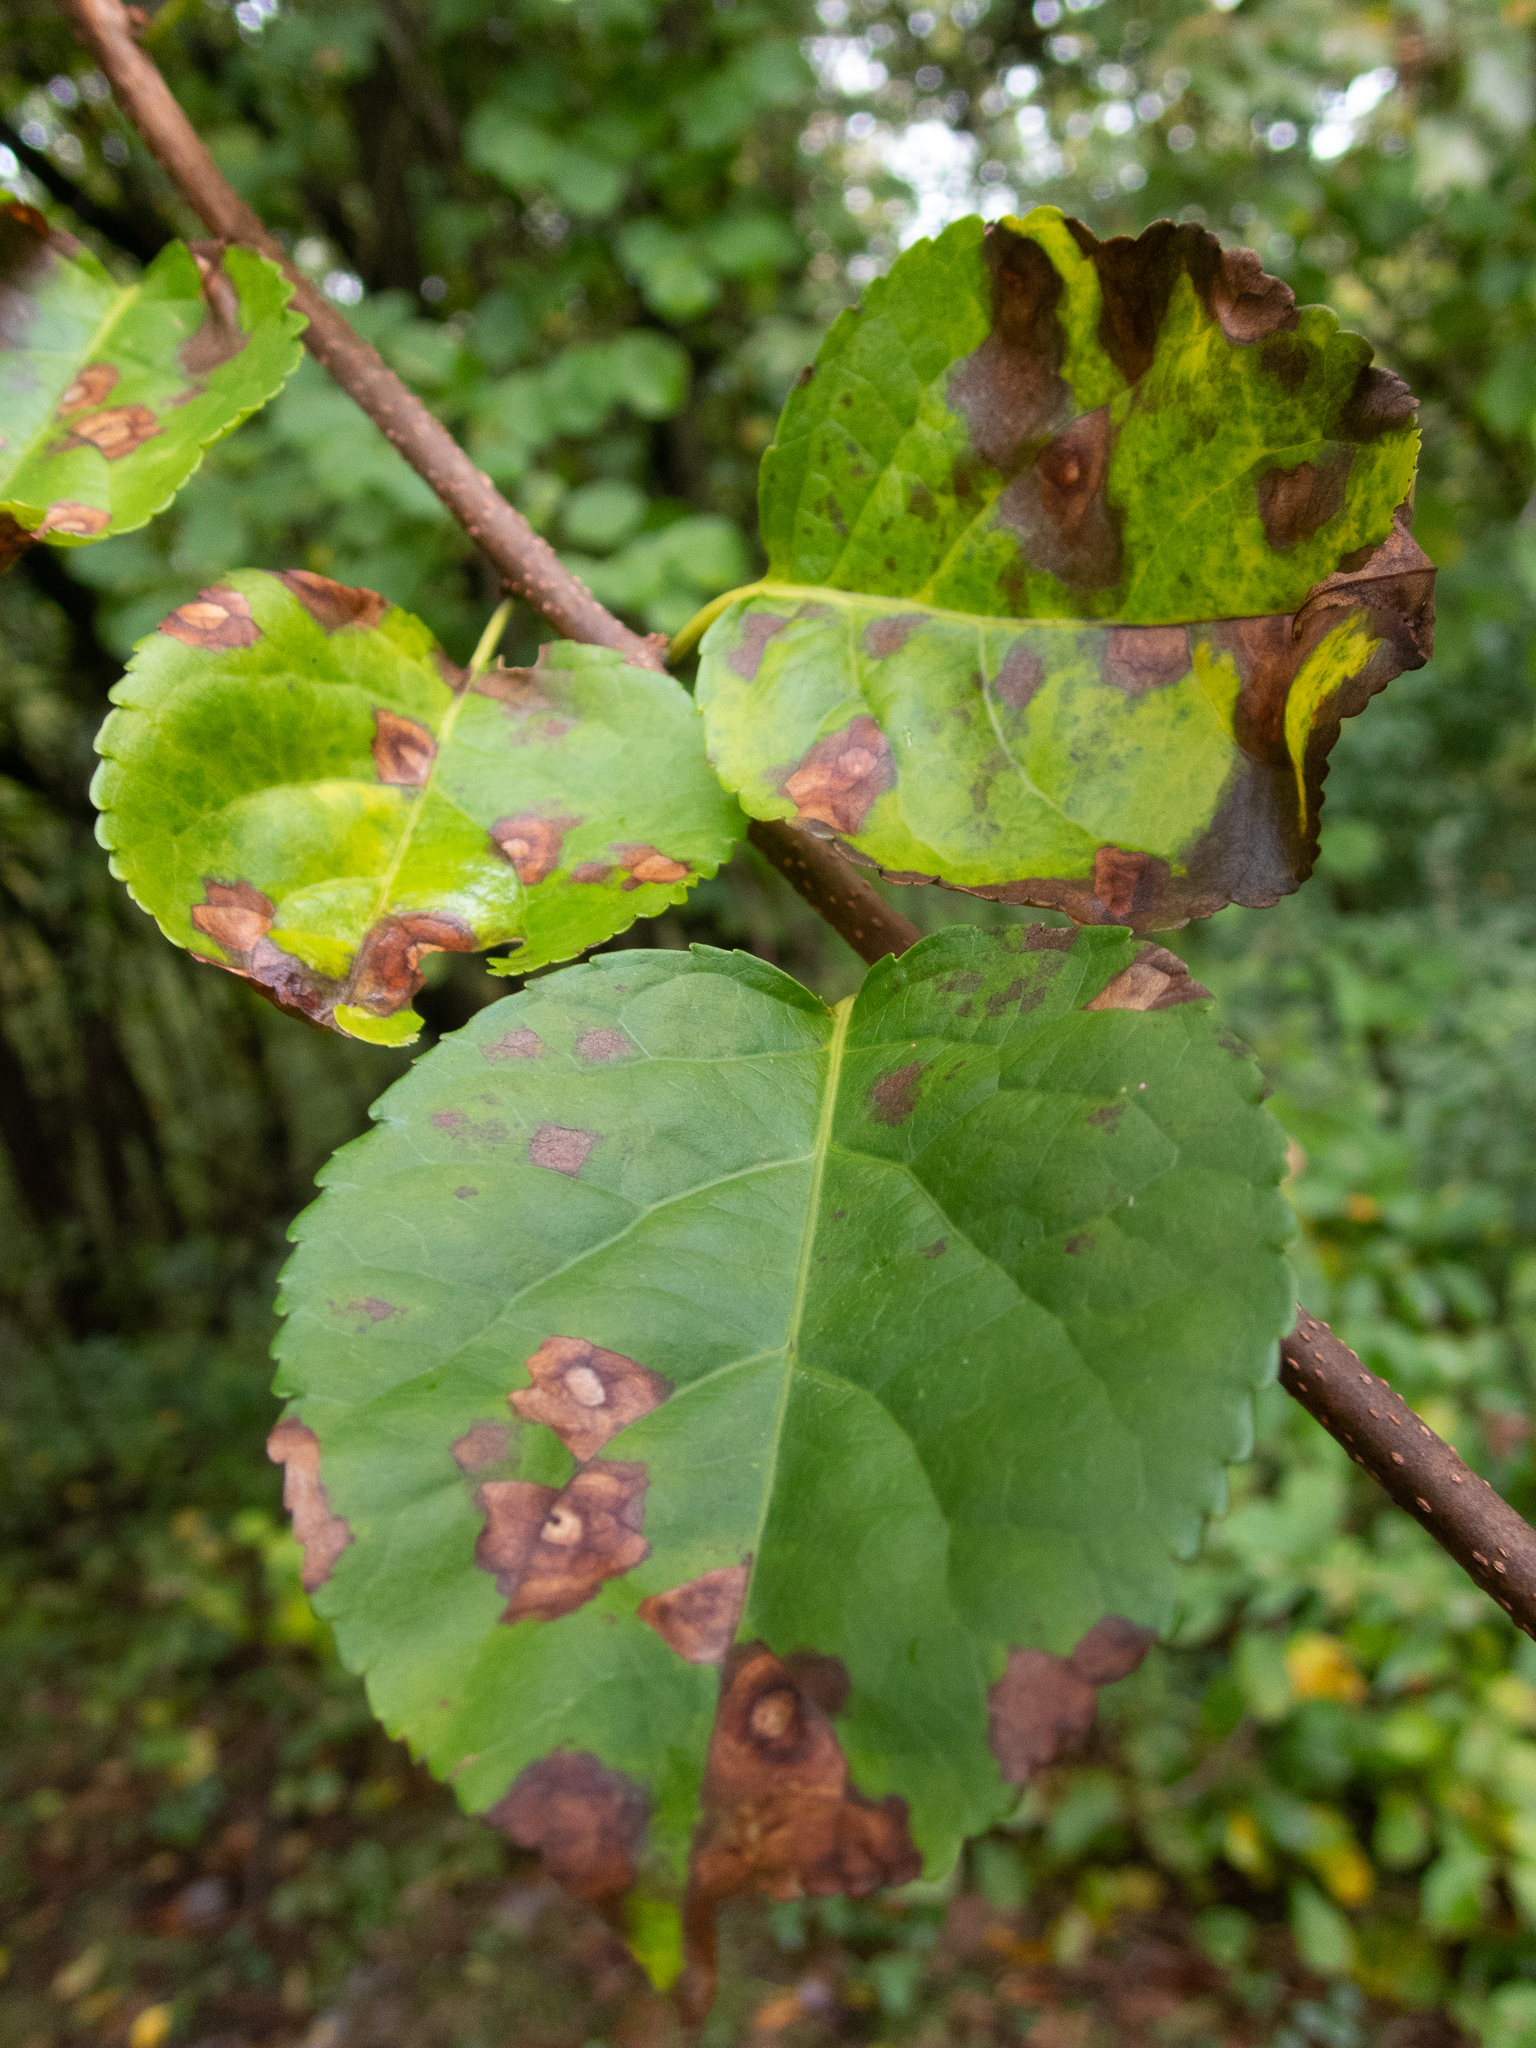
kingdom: Plantae
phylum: Tracheophyta
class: Magnoliopsida
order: Celastrales
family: Celastraceae
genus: Celastrus
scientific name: Celastrus orbiculatus
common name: Oriental bittersweet
